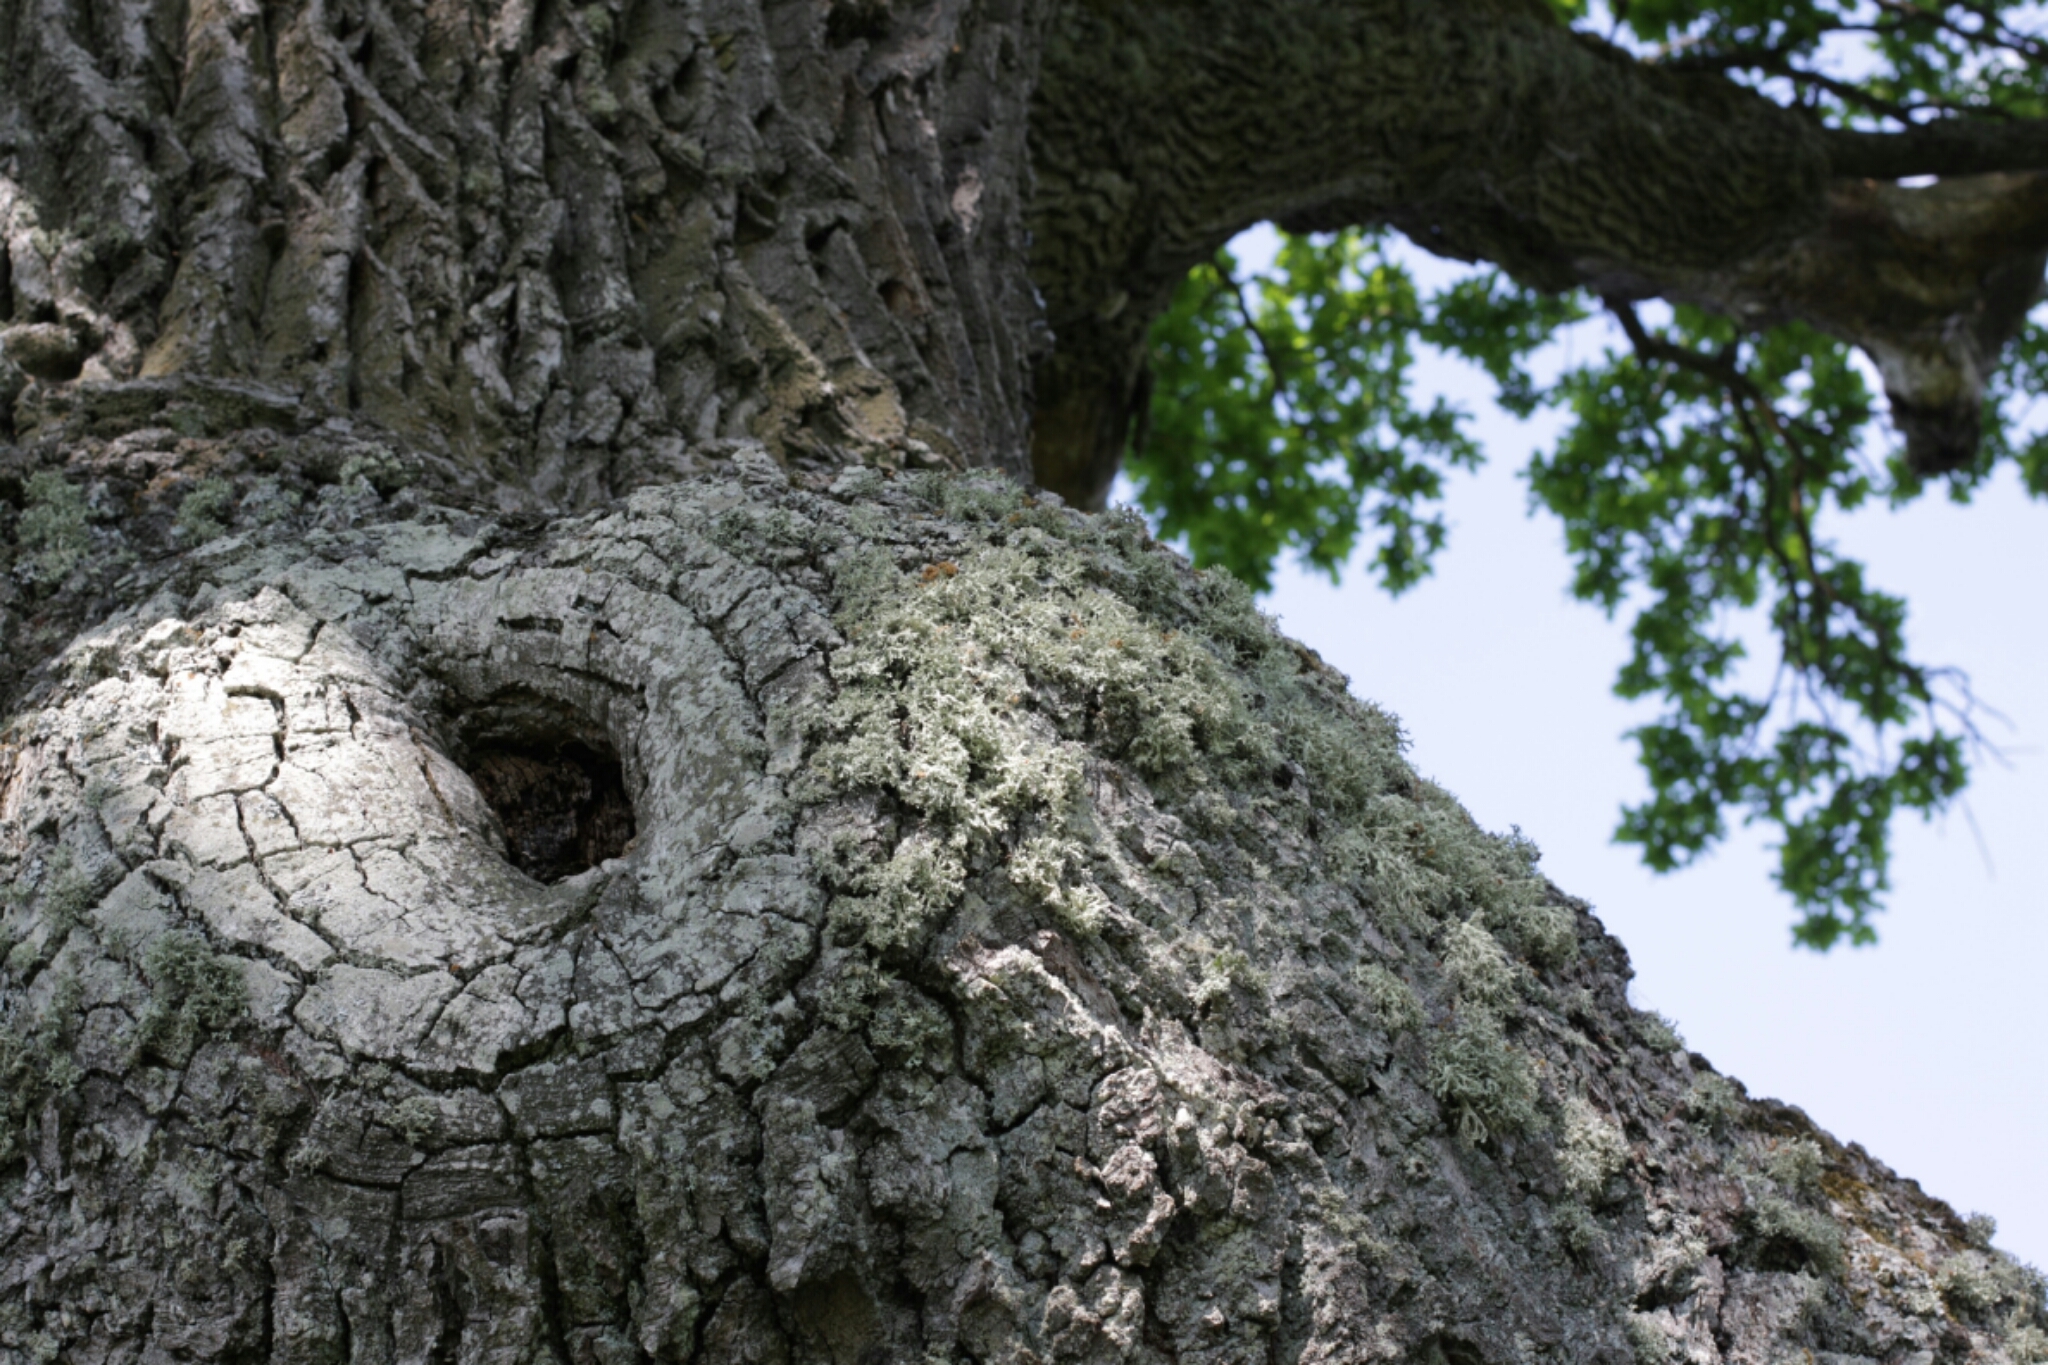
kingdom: Plantae
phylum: Tracheophyta
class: Magnoliopsida
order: Fagales
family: Fagaceae
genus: Quercus
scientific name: Quercus robur
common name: Pedunculate oak
